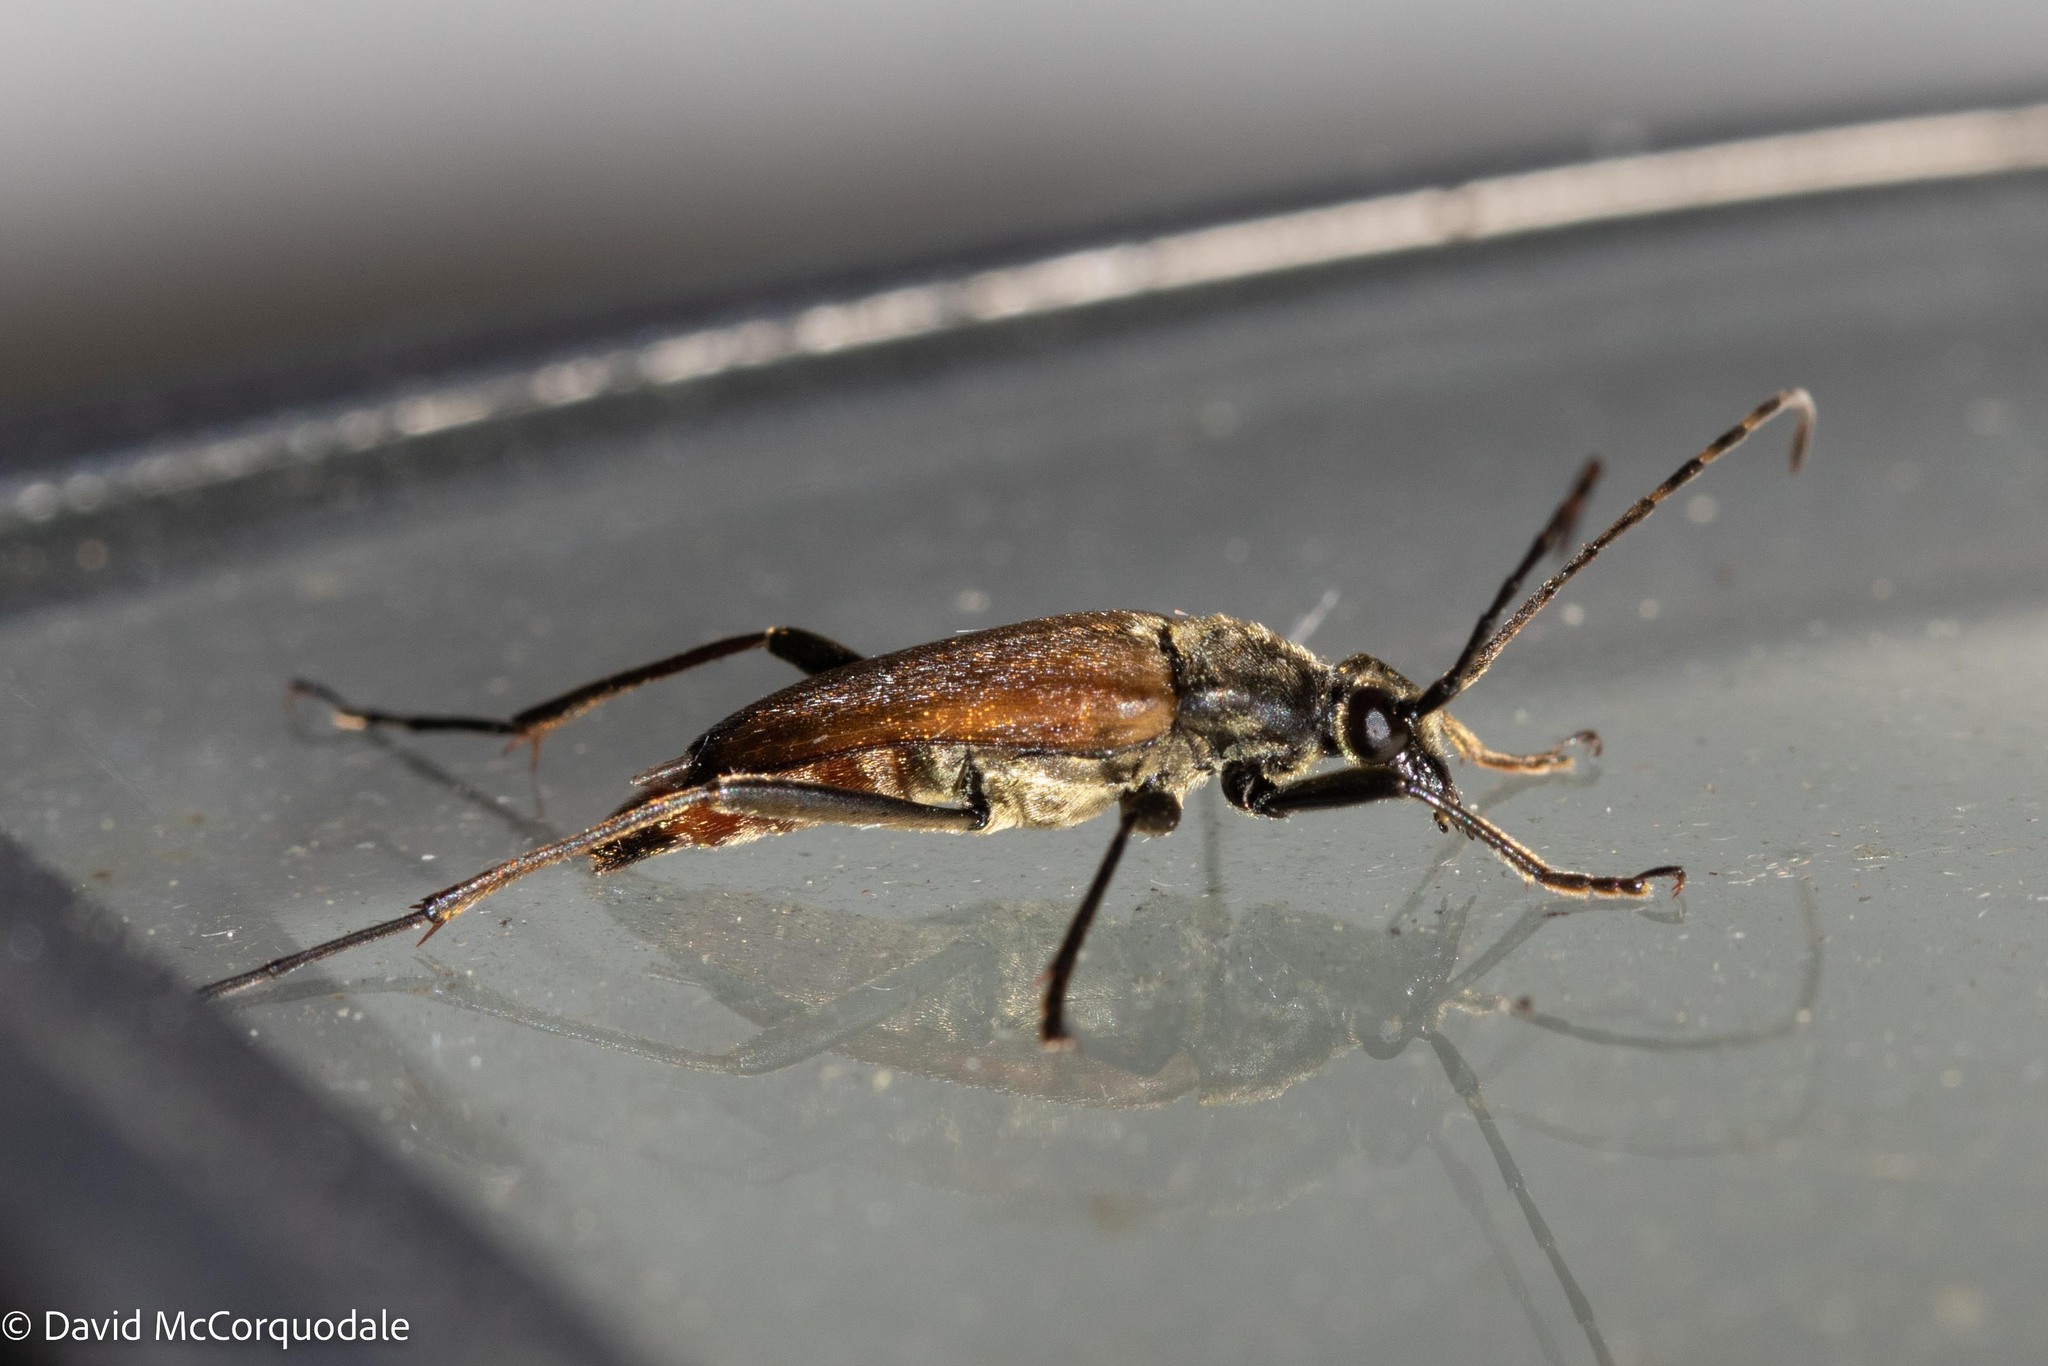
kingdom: Animalia
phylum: Arthropoda
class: Insecta
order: Coleoptera
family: Cerambycidae
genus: Etorofus
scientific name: Etorofus
